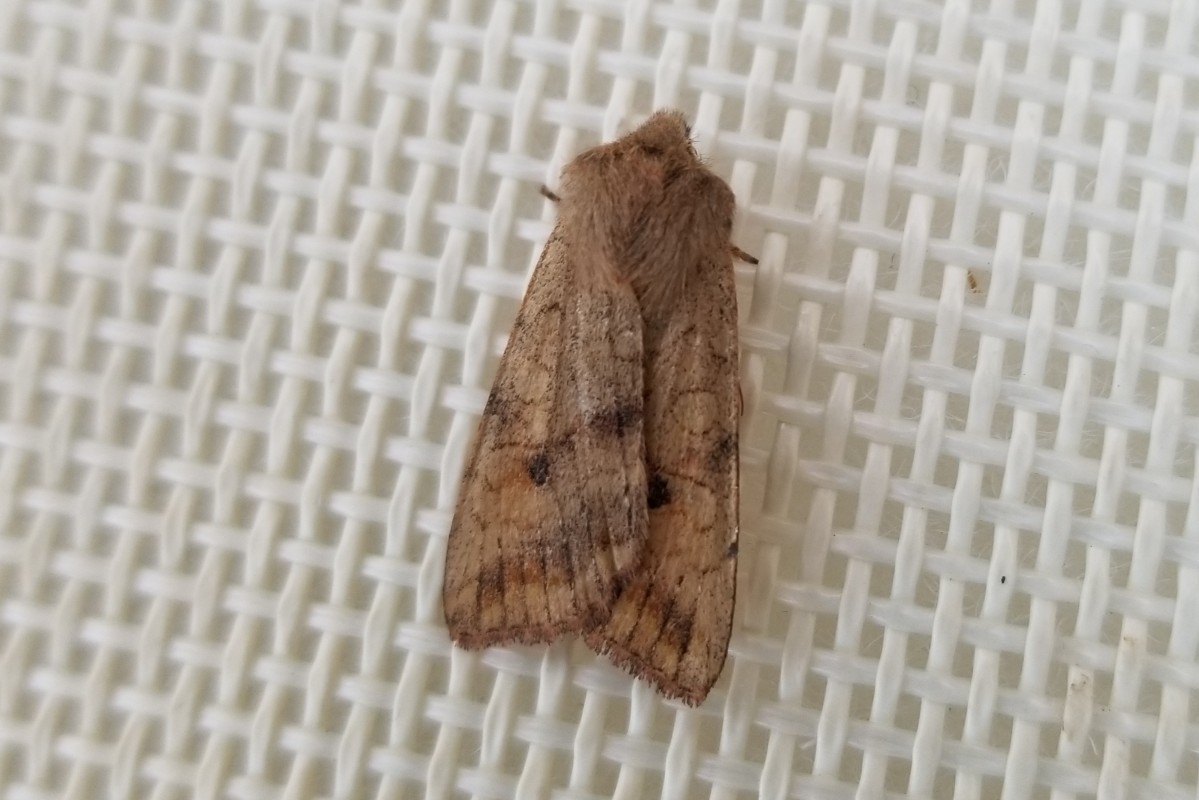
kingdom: Animalia
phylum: Arthropoda
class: Insecta
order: Lepidoptera
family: Noctuidae
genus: Agrochola
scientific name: Agrochola verberata
